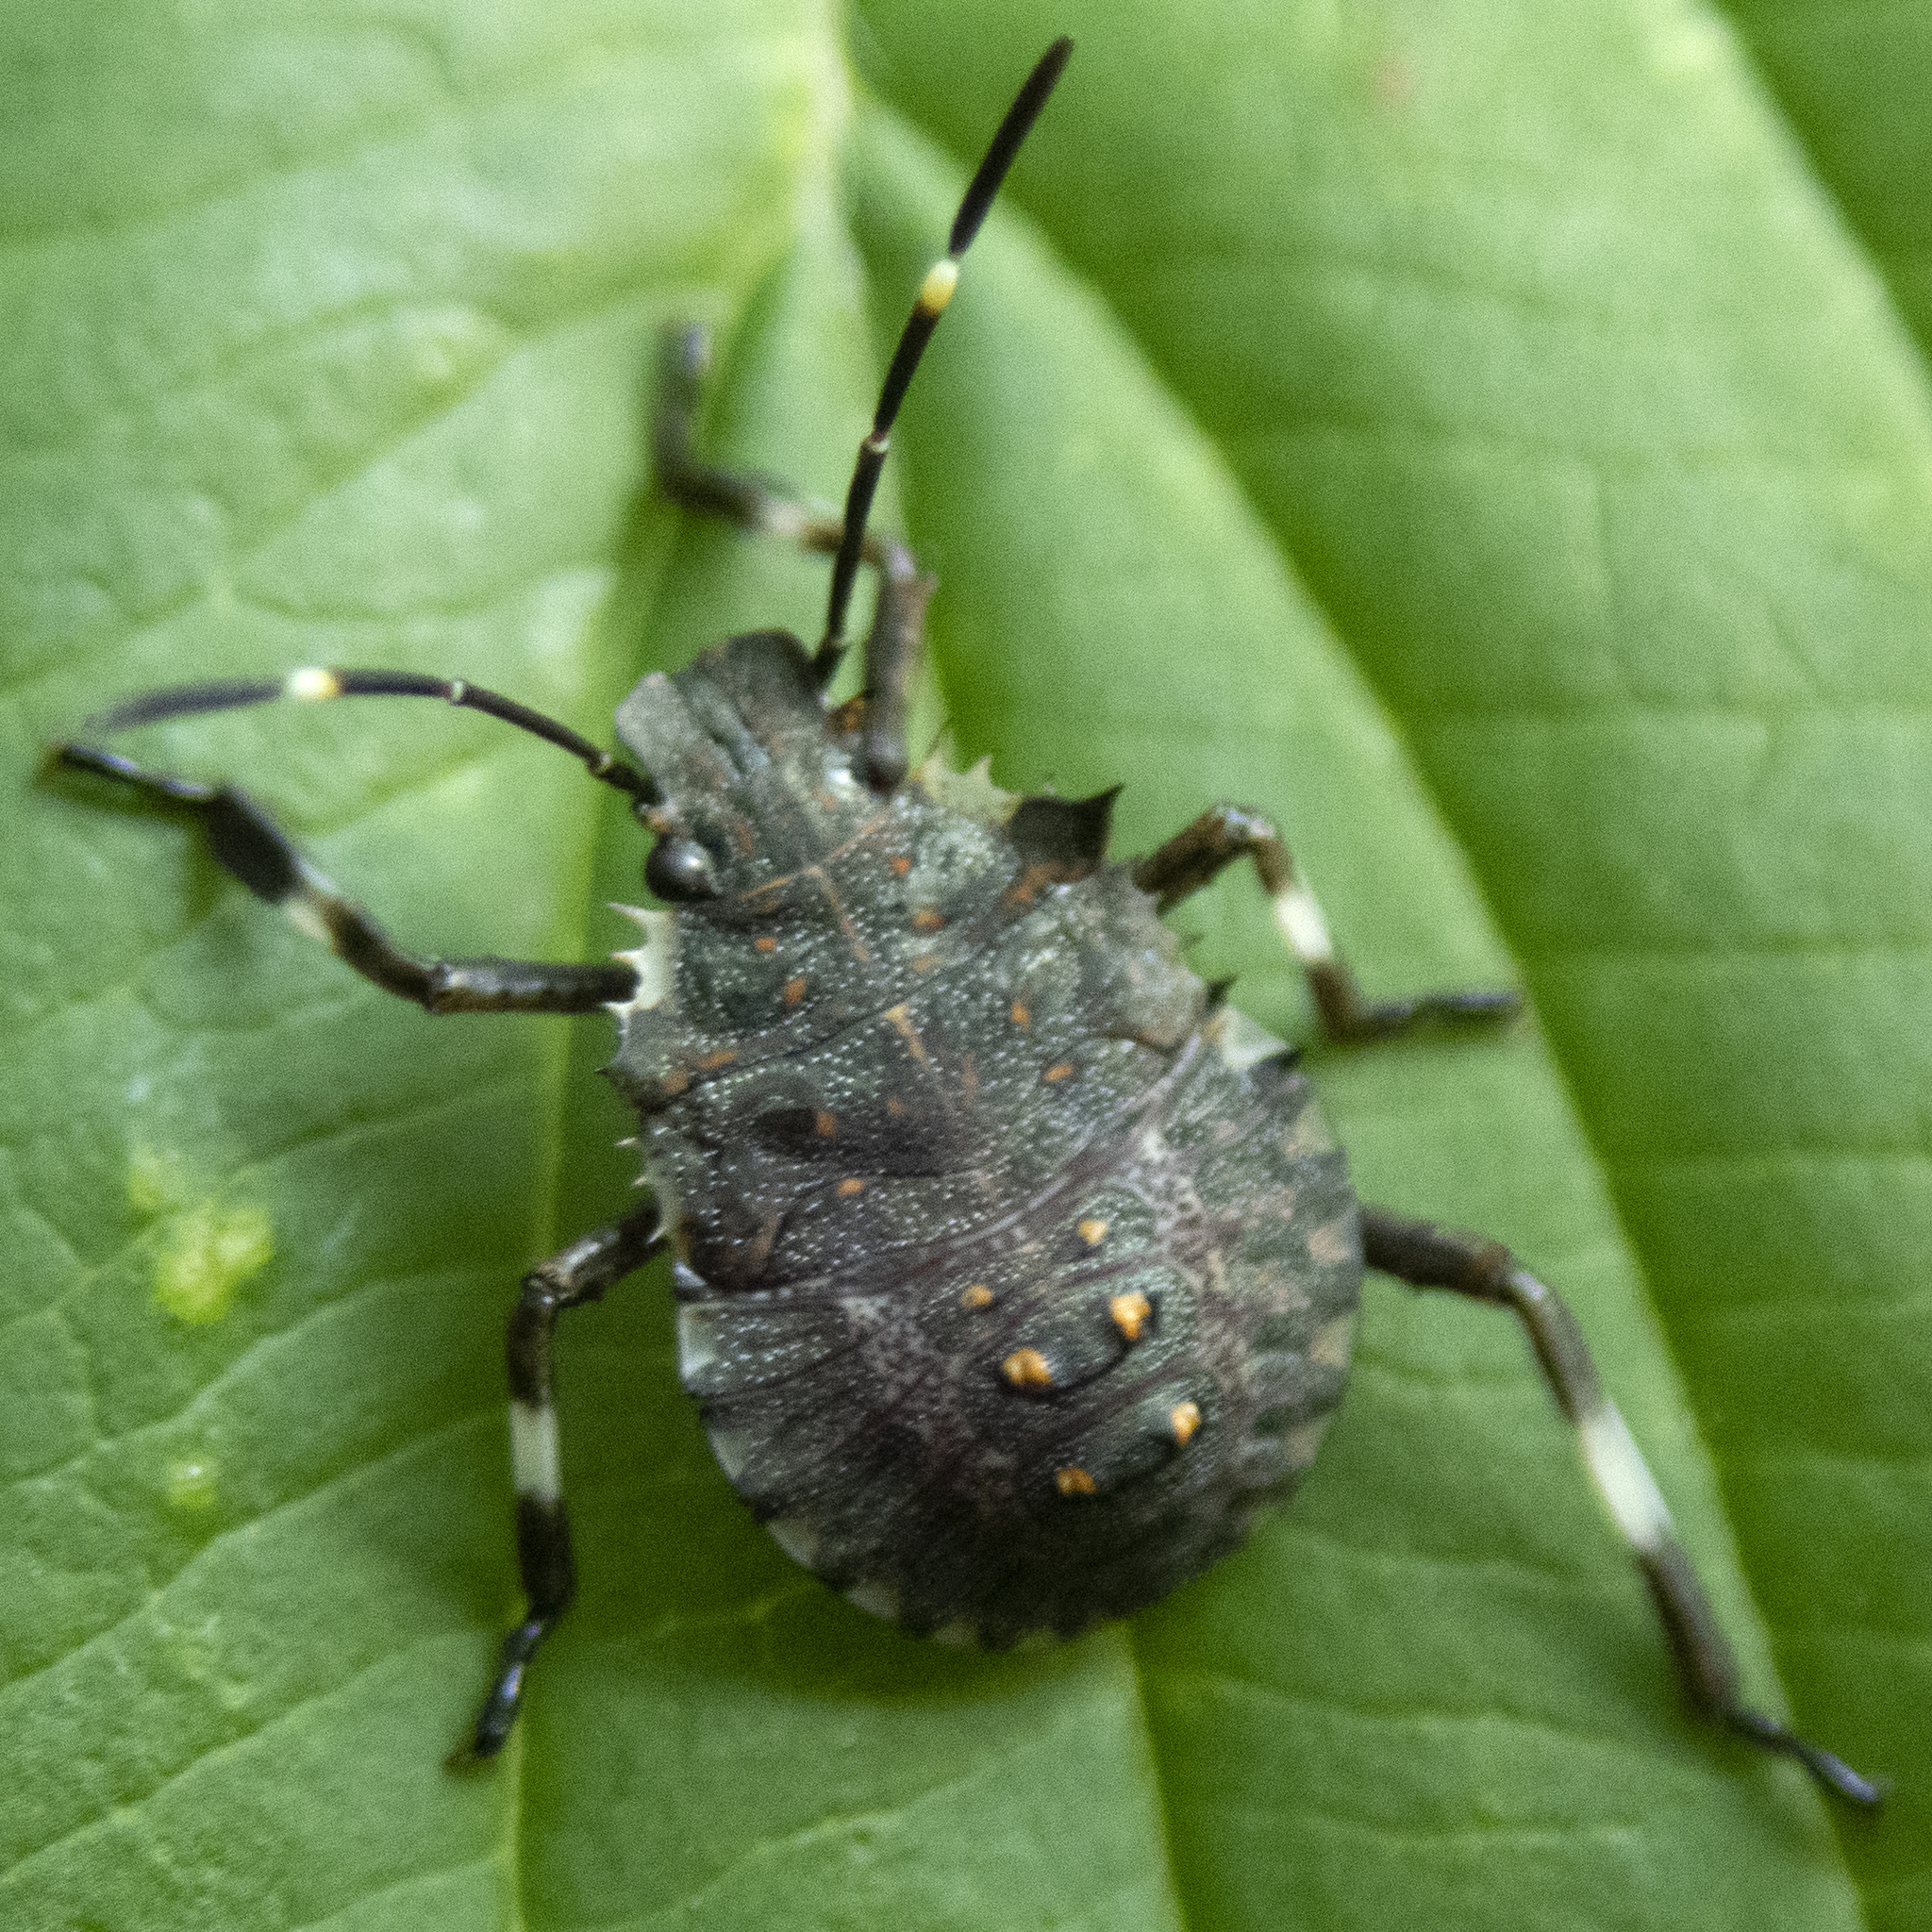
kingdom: Animalia
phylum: Arthropoda
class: Insecta
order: Hemiptera
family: Pentatomidae
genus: Halyomorpha
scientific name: Halyomorpha halys
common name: Brown marmorated stink bug
